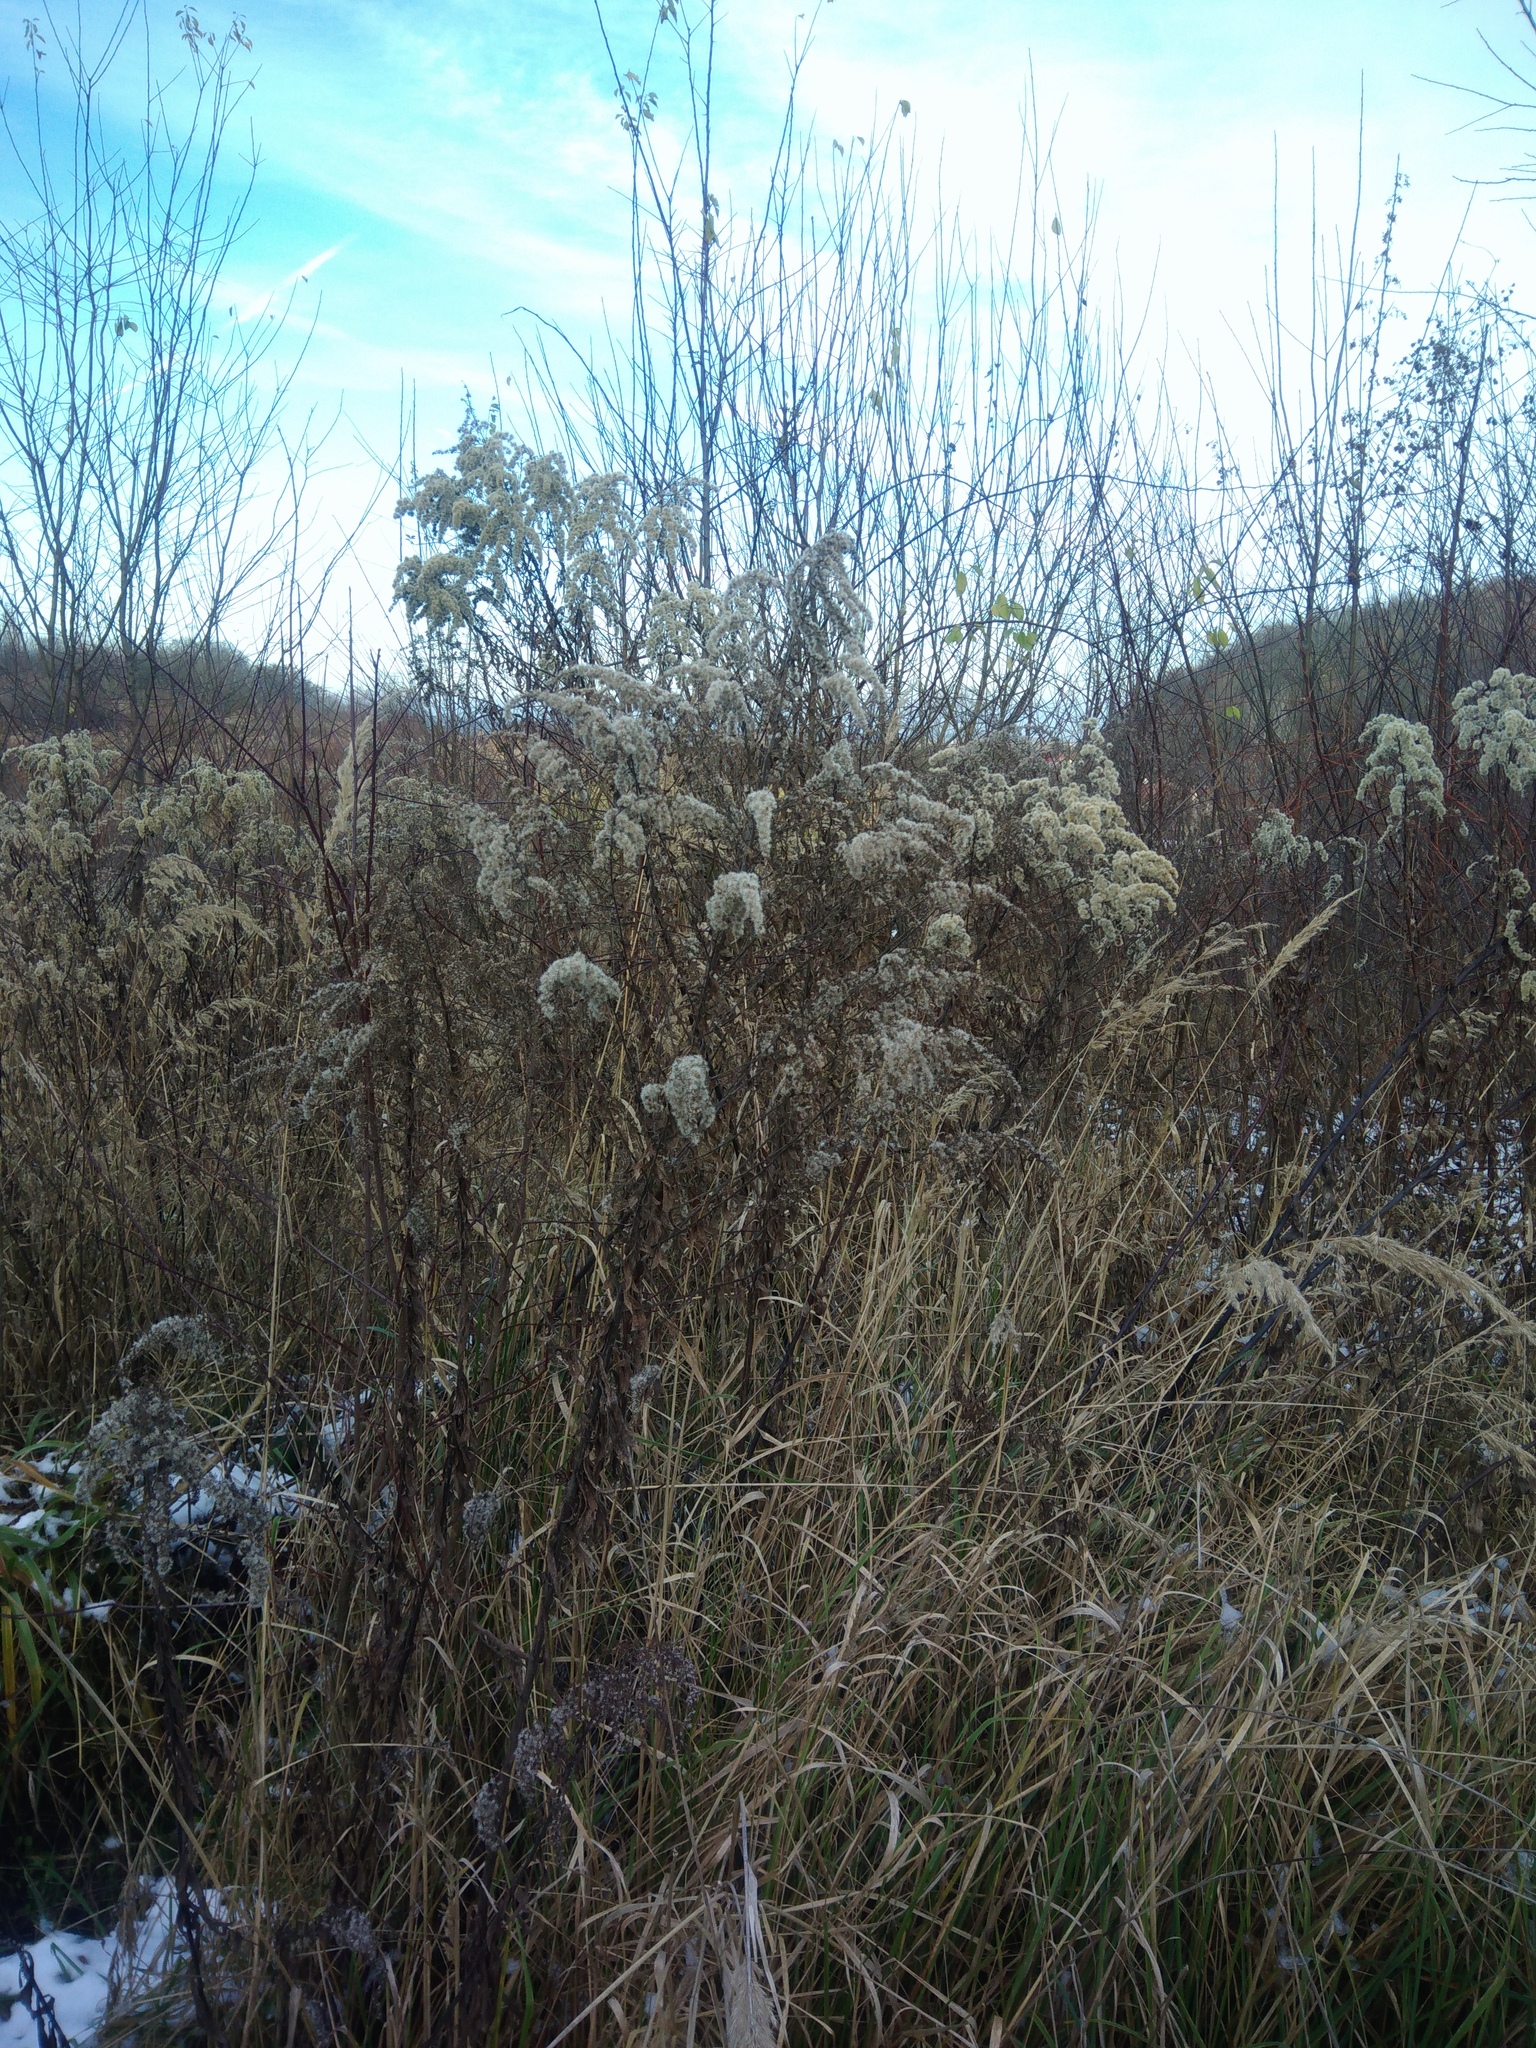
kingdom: Plantae
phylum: Tracheophyta
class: Magnoliopsida
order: Asterales
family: Asteraceae
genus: Solidago
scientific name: Solidago
